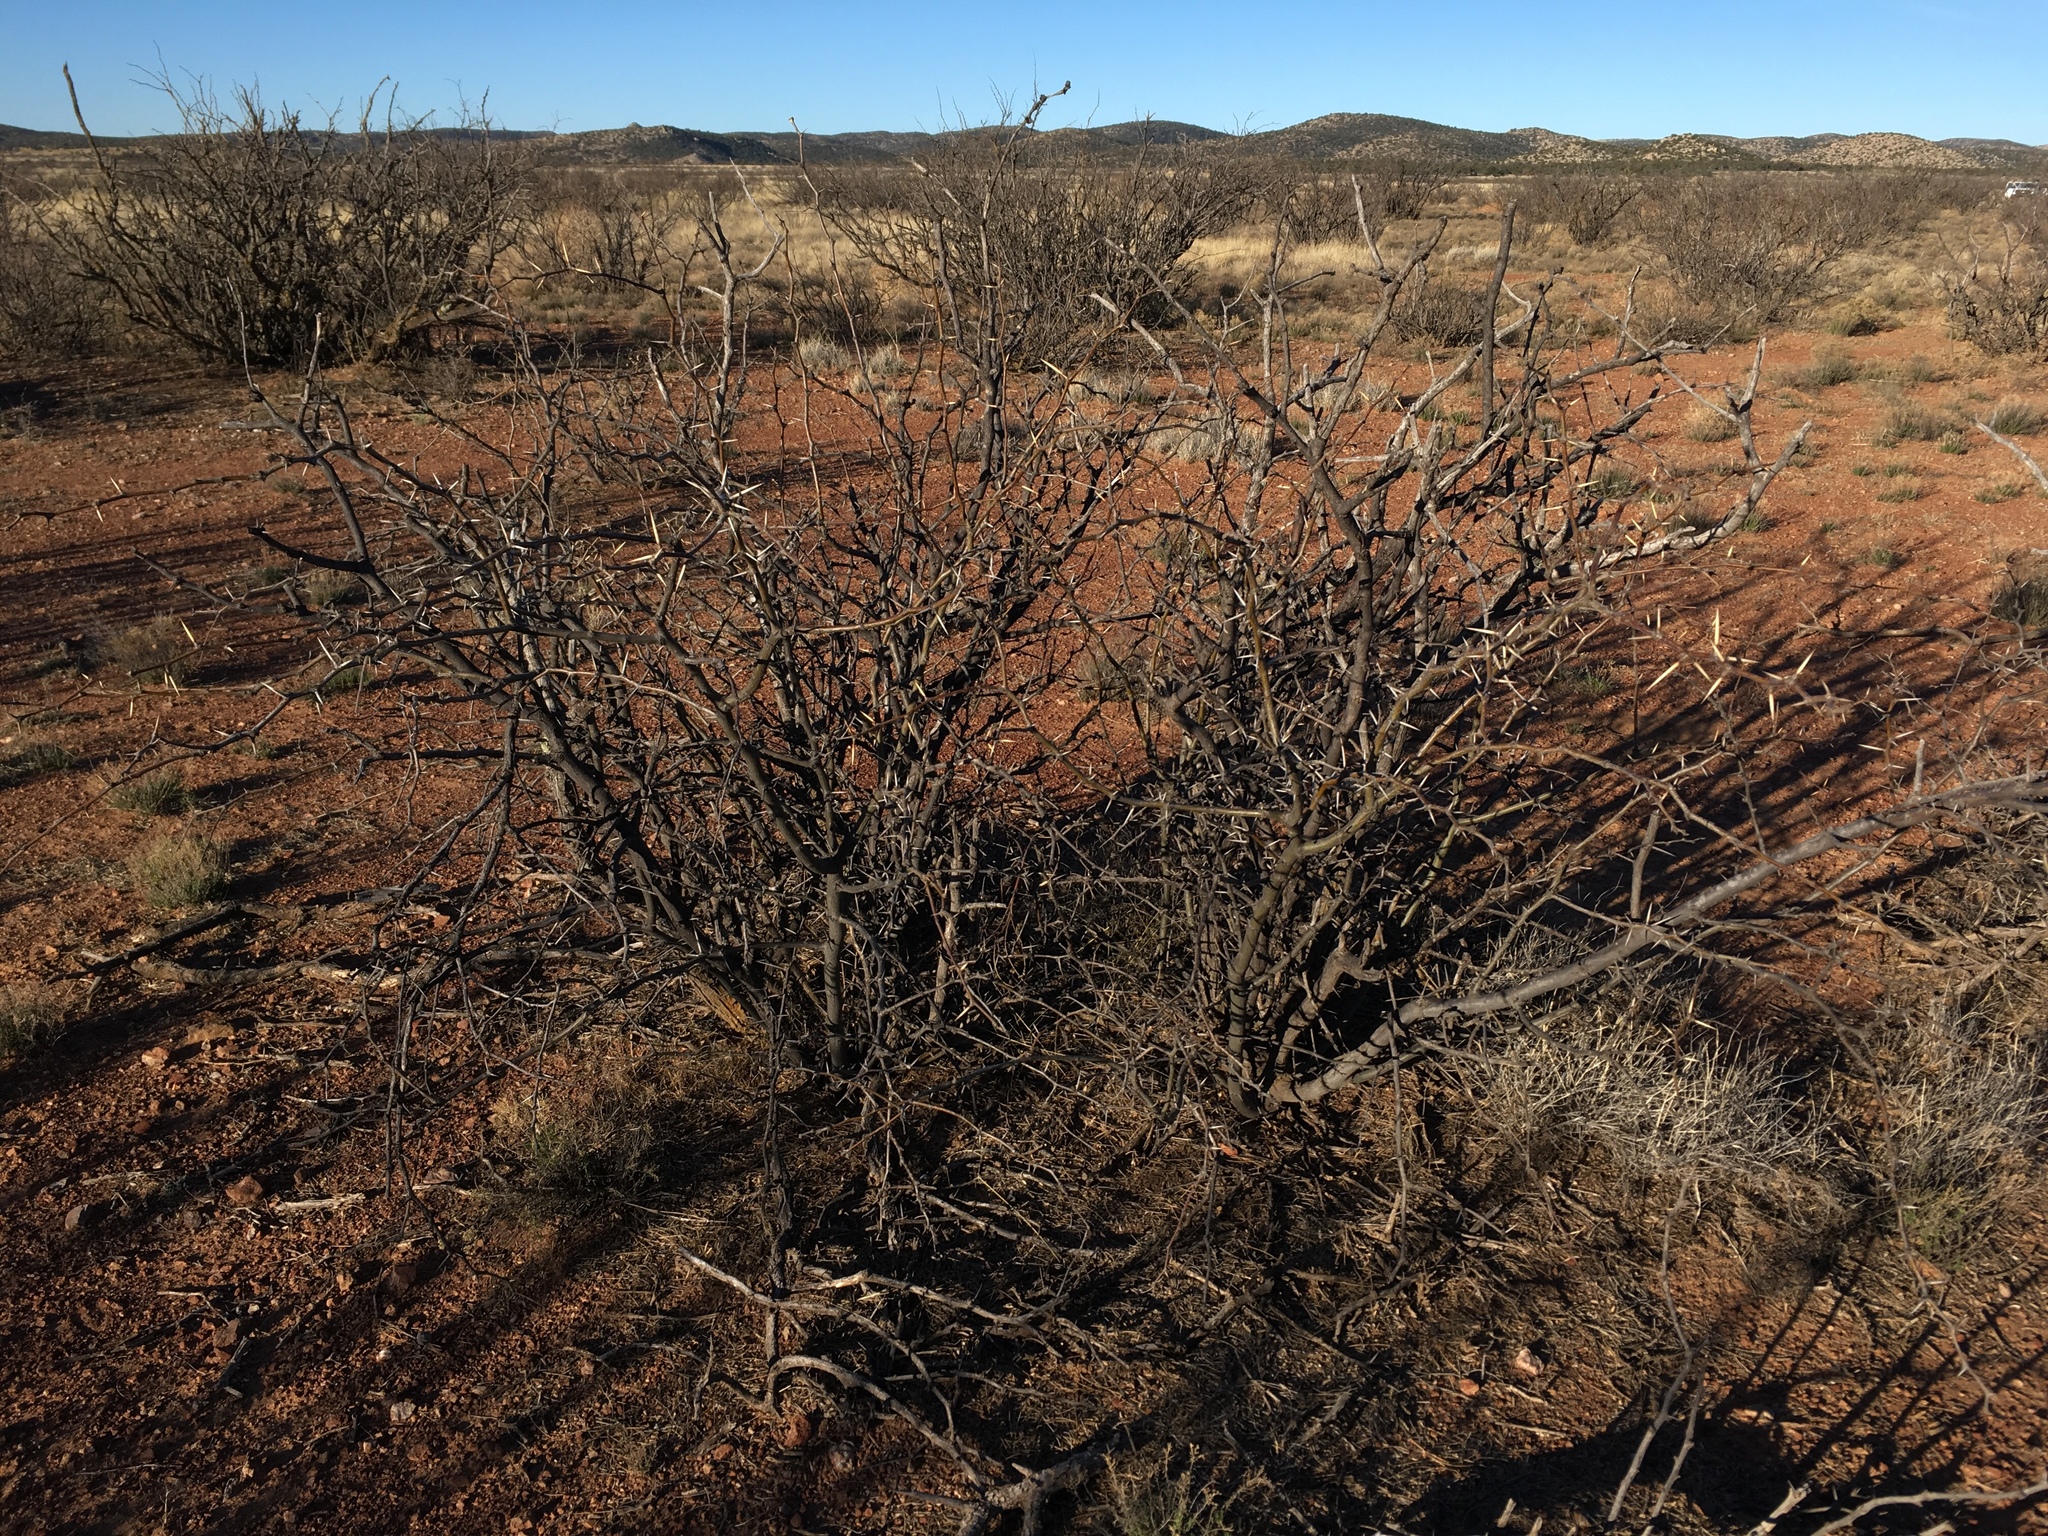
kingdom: Plantae
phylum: Tracheophyta
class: Magnoliopsida
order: Fabales
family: Fabaceae
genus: Prosopis
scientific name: Prosopis glandulosa
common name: Honey mesquite
